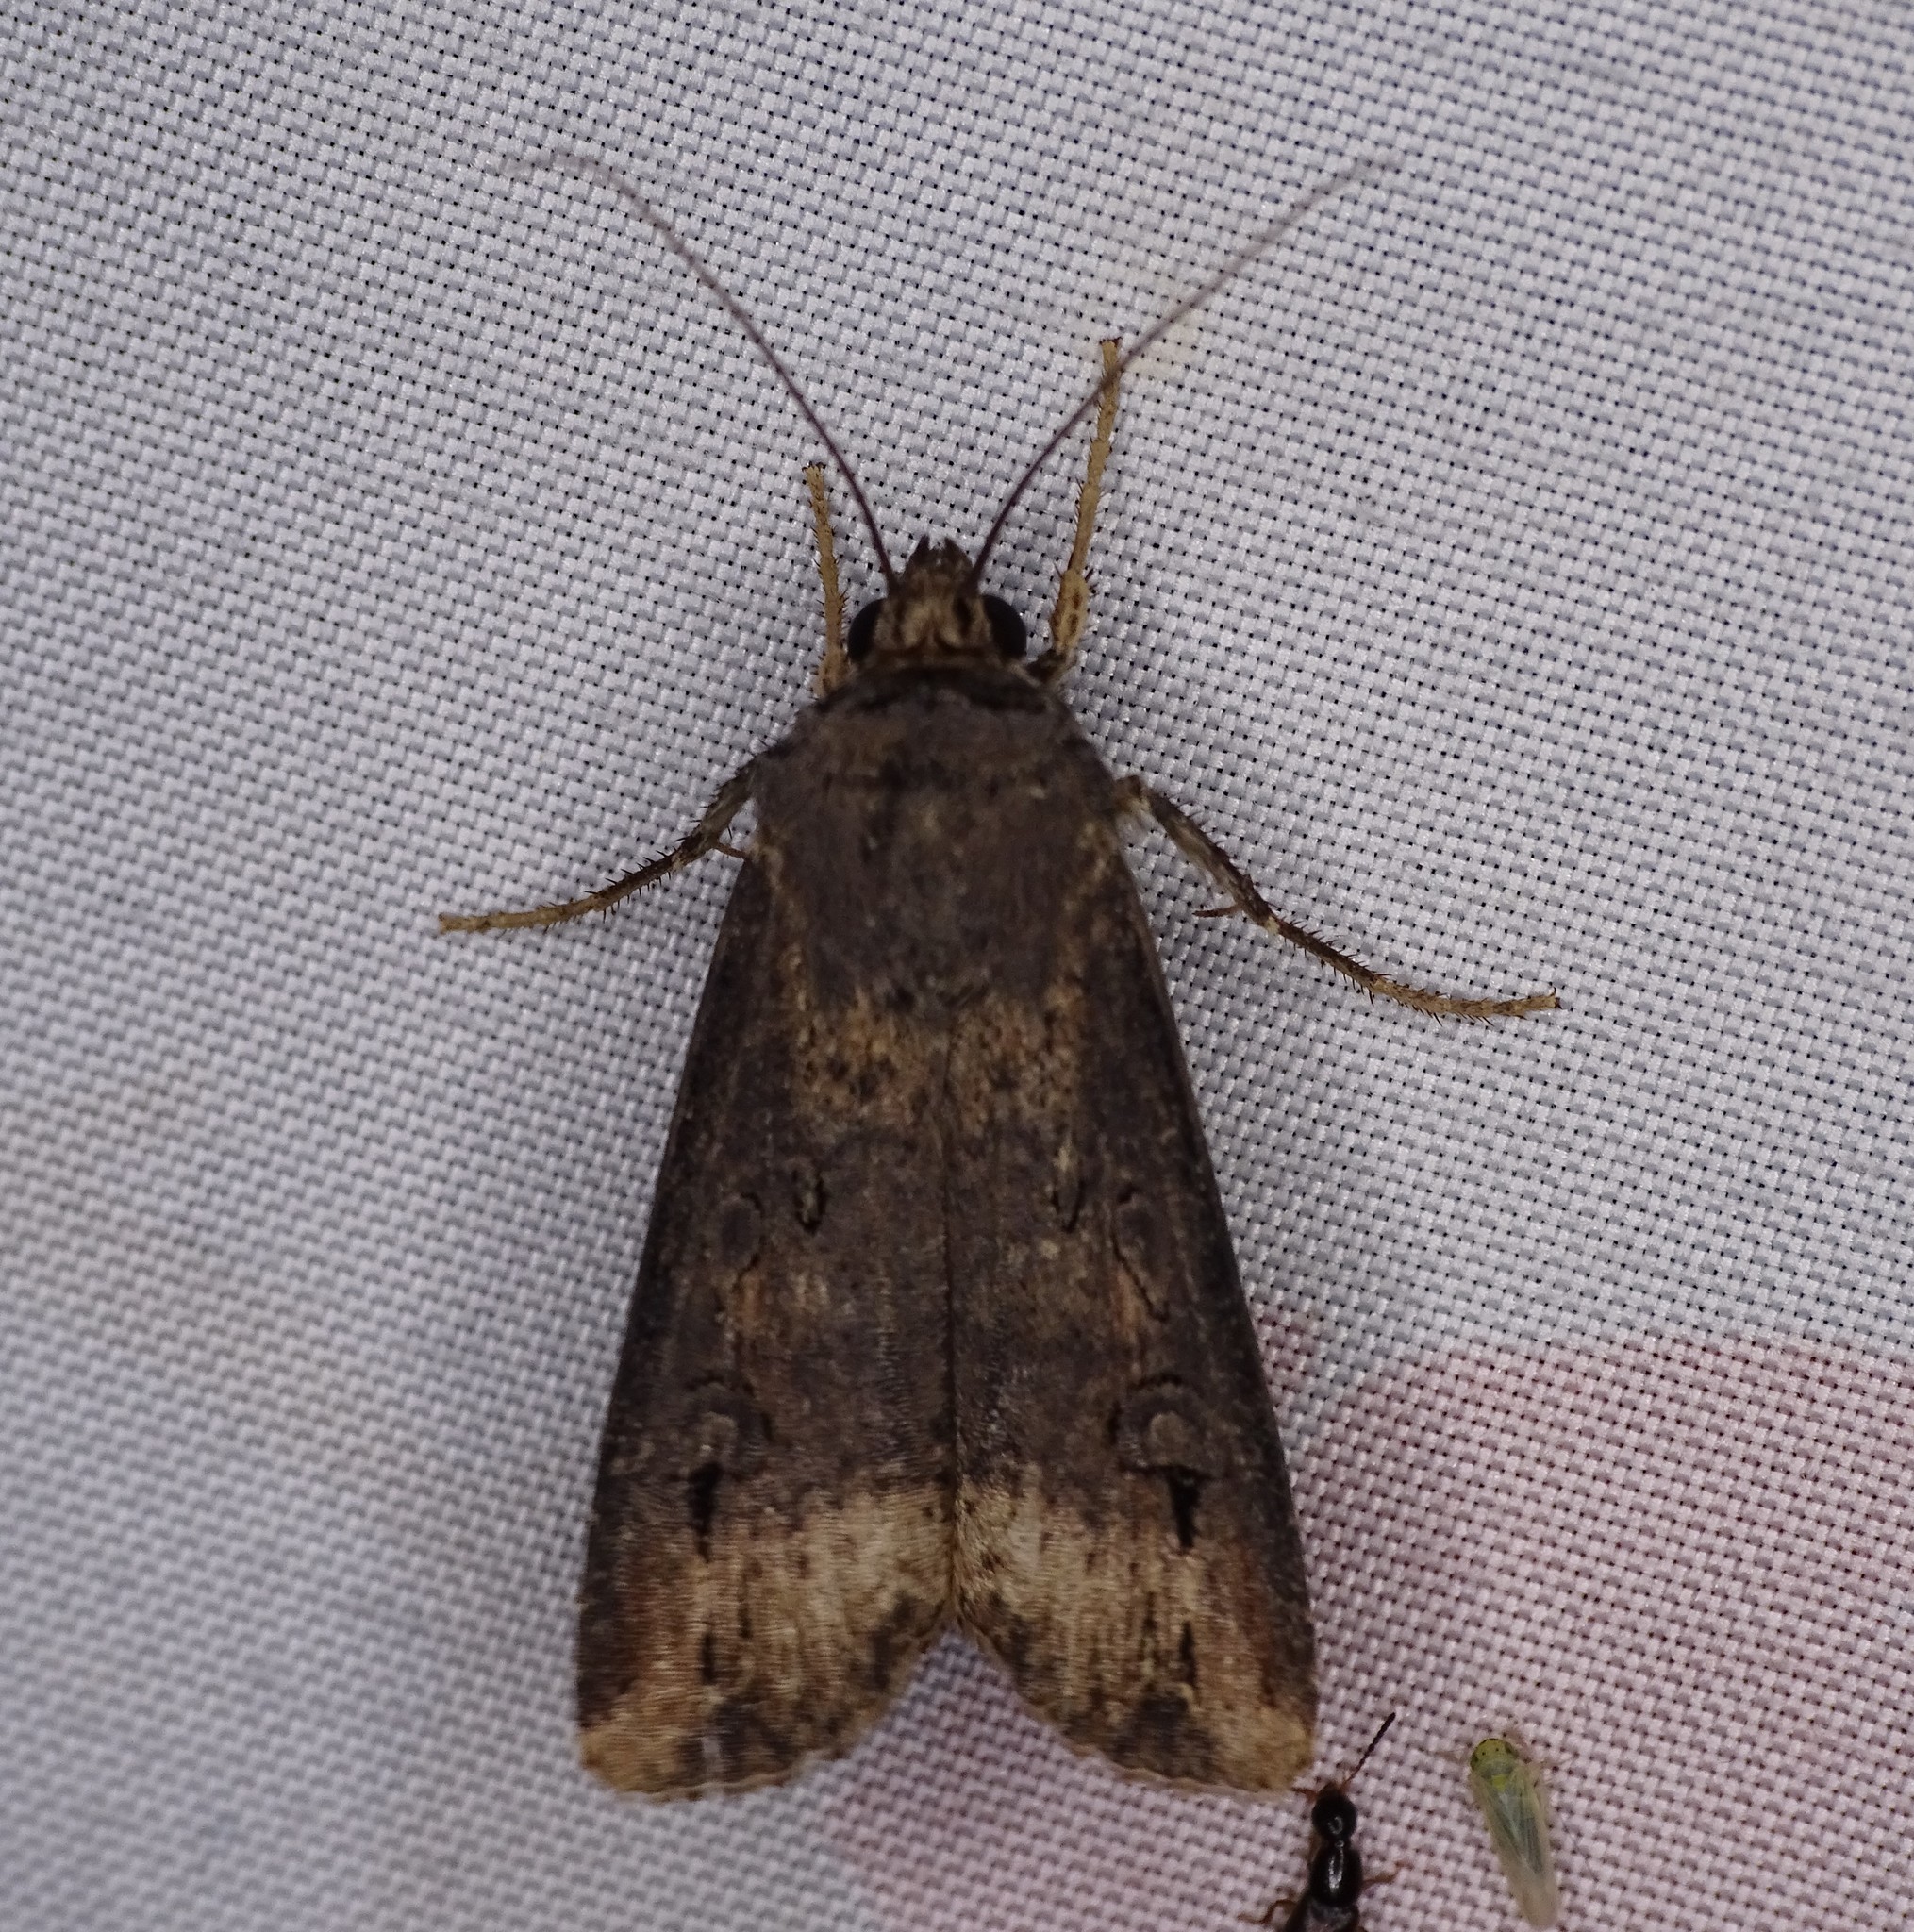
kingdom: Animalia
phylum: Arthropoda
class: Insecta
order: Lepidoptera
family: Noctuidae
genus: Agrotis
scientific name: Agrotis ipsilon
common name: Dark sword-grass
